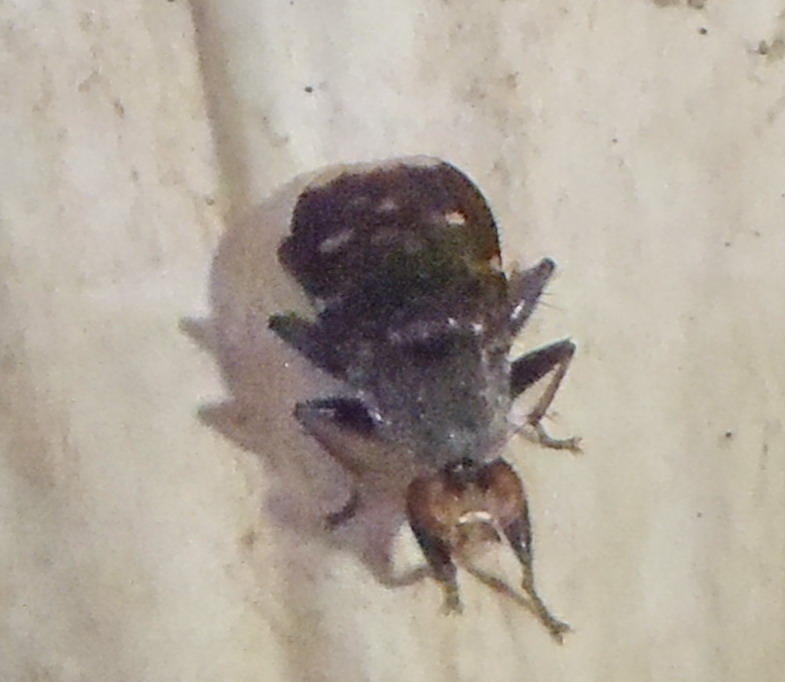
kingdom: Animalia
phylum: Arthropoda
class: Insecta
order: Diptera
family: Heleomyzidae
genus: Suillia
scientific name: Suillia picta
